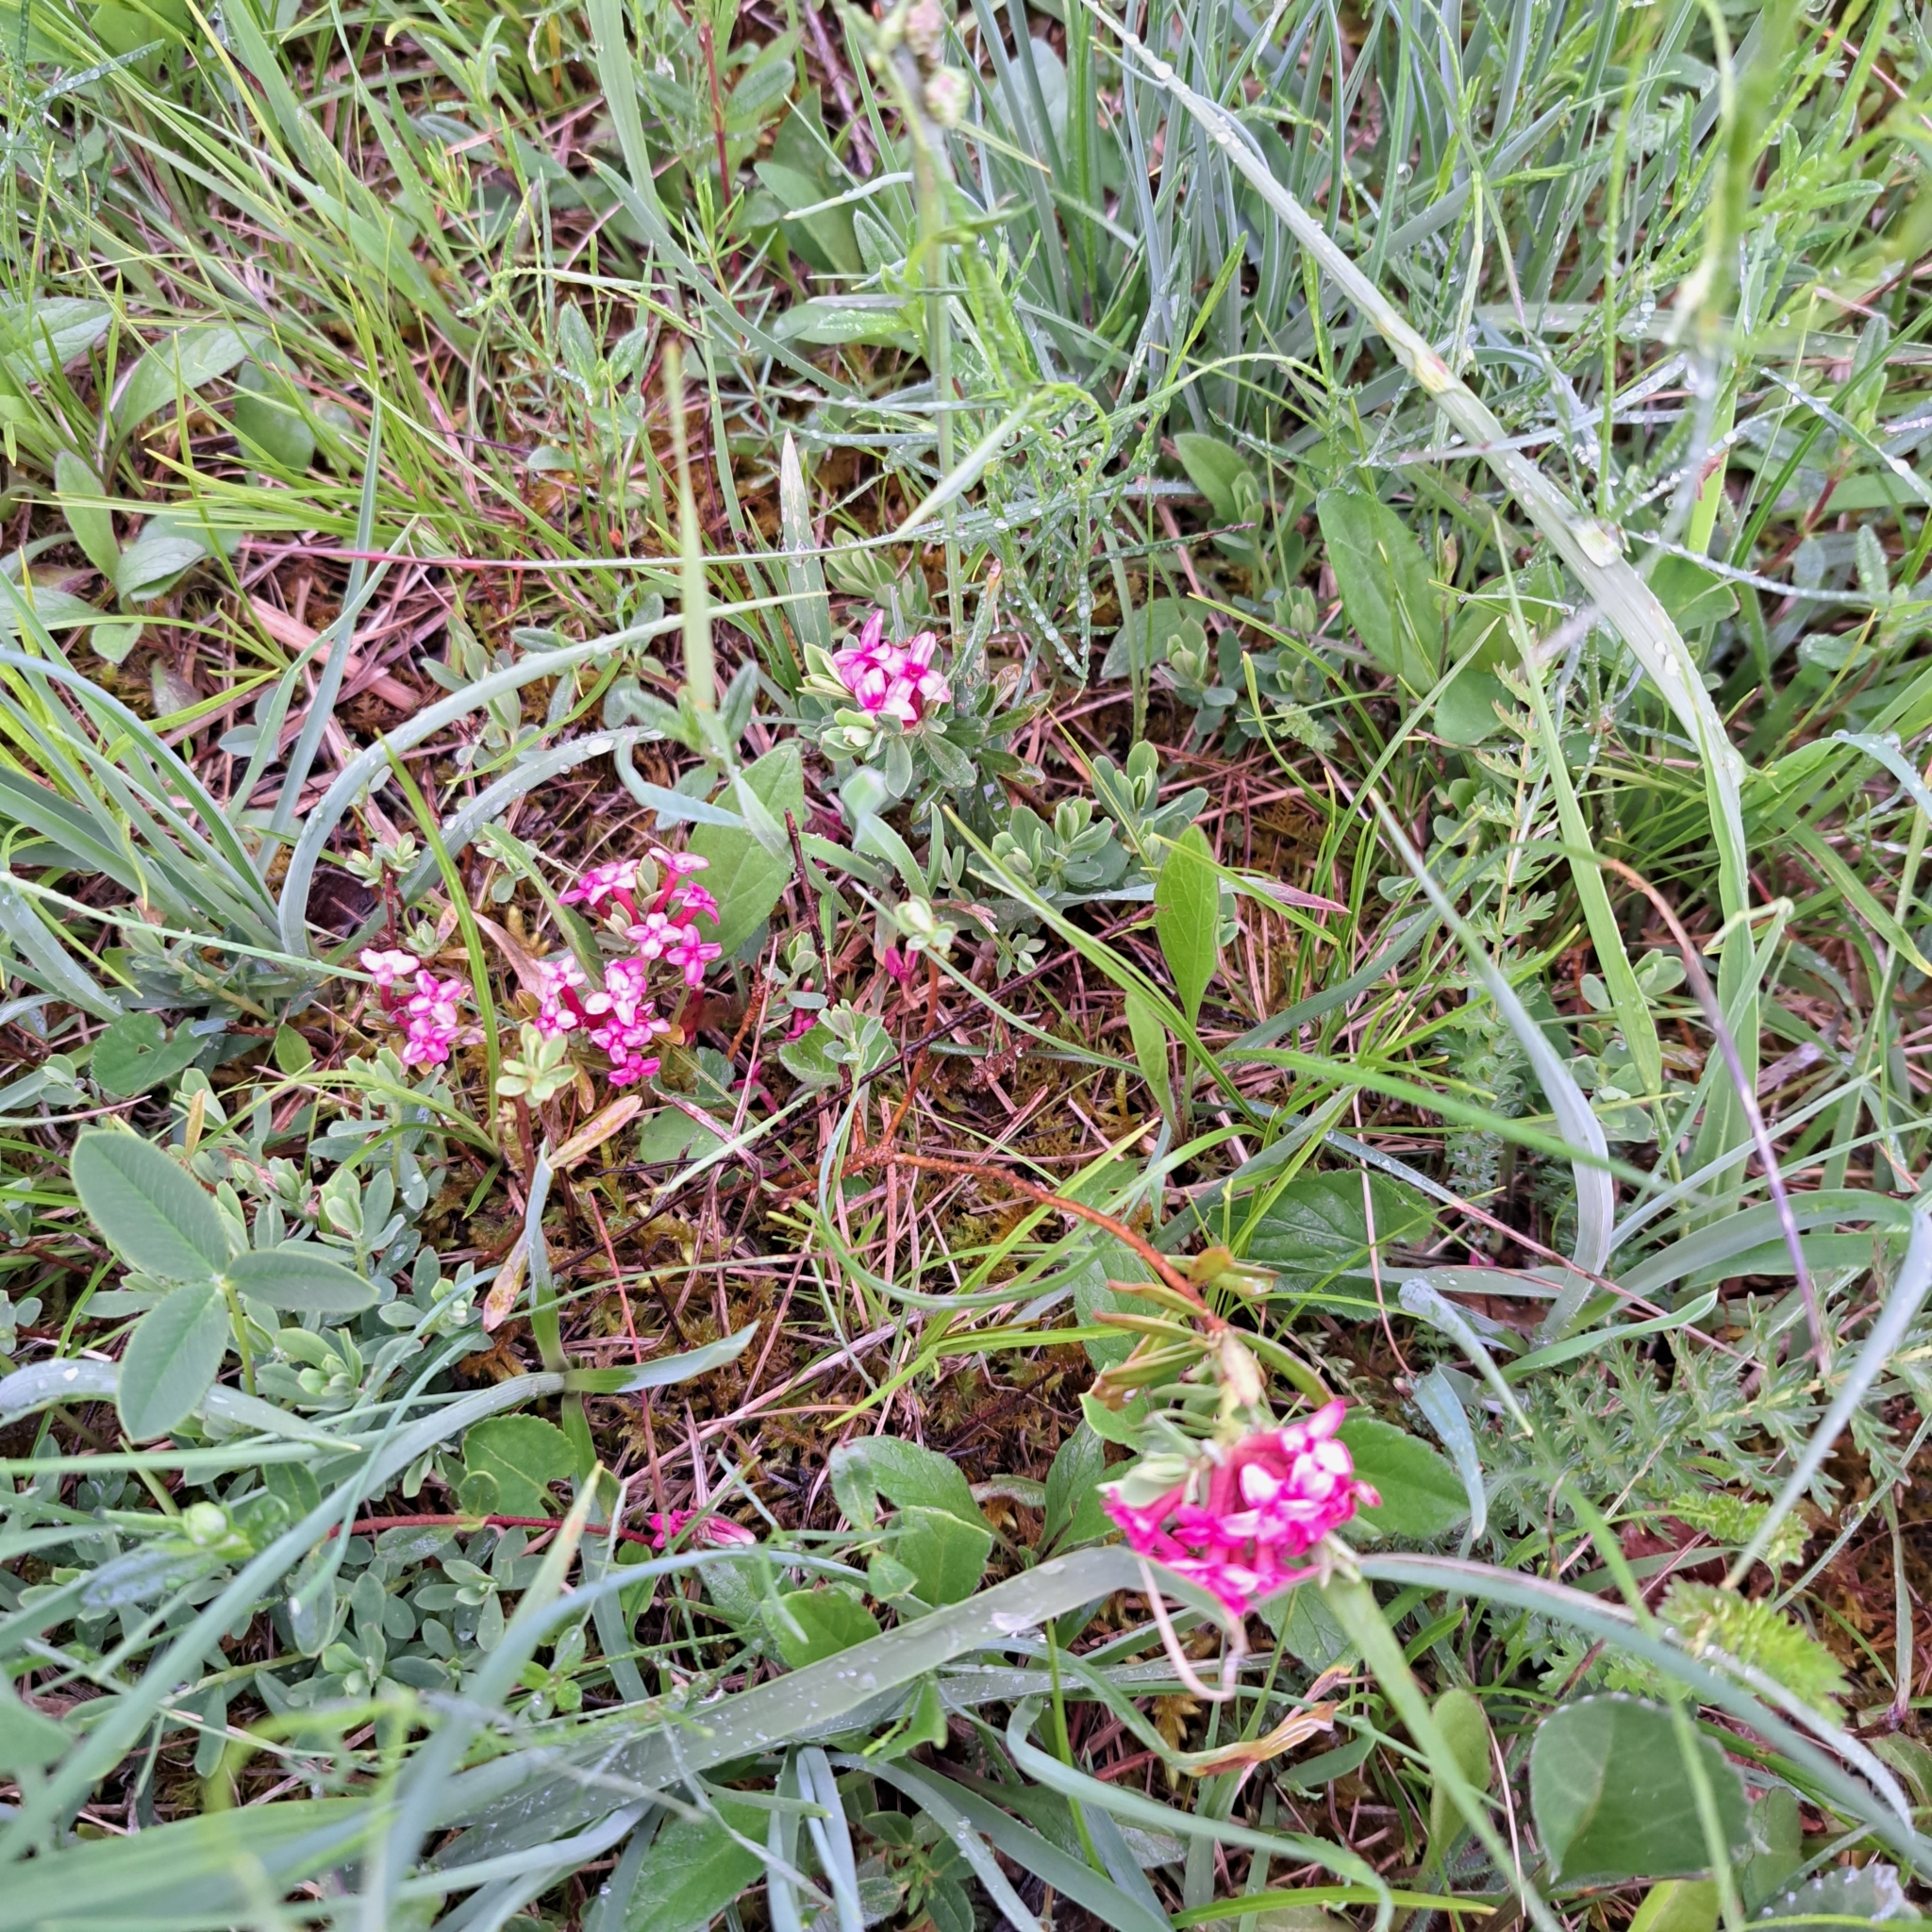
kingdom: Plantae
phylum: Tracheophyta
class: Magnoliopsida
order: Malvales
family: Thymelaeaceae
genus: Daphne
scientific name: Daphne cneorum
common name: Garland-flower
